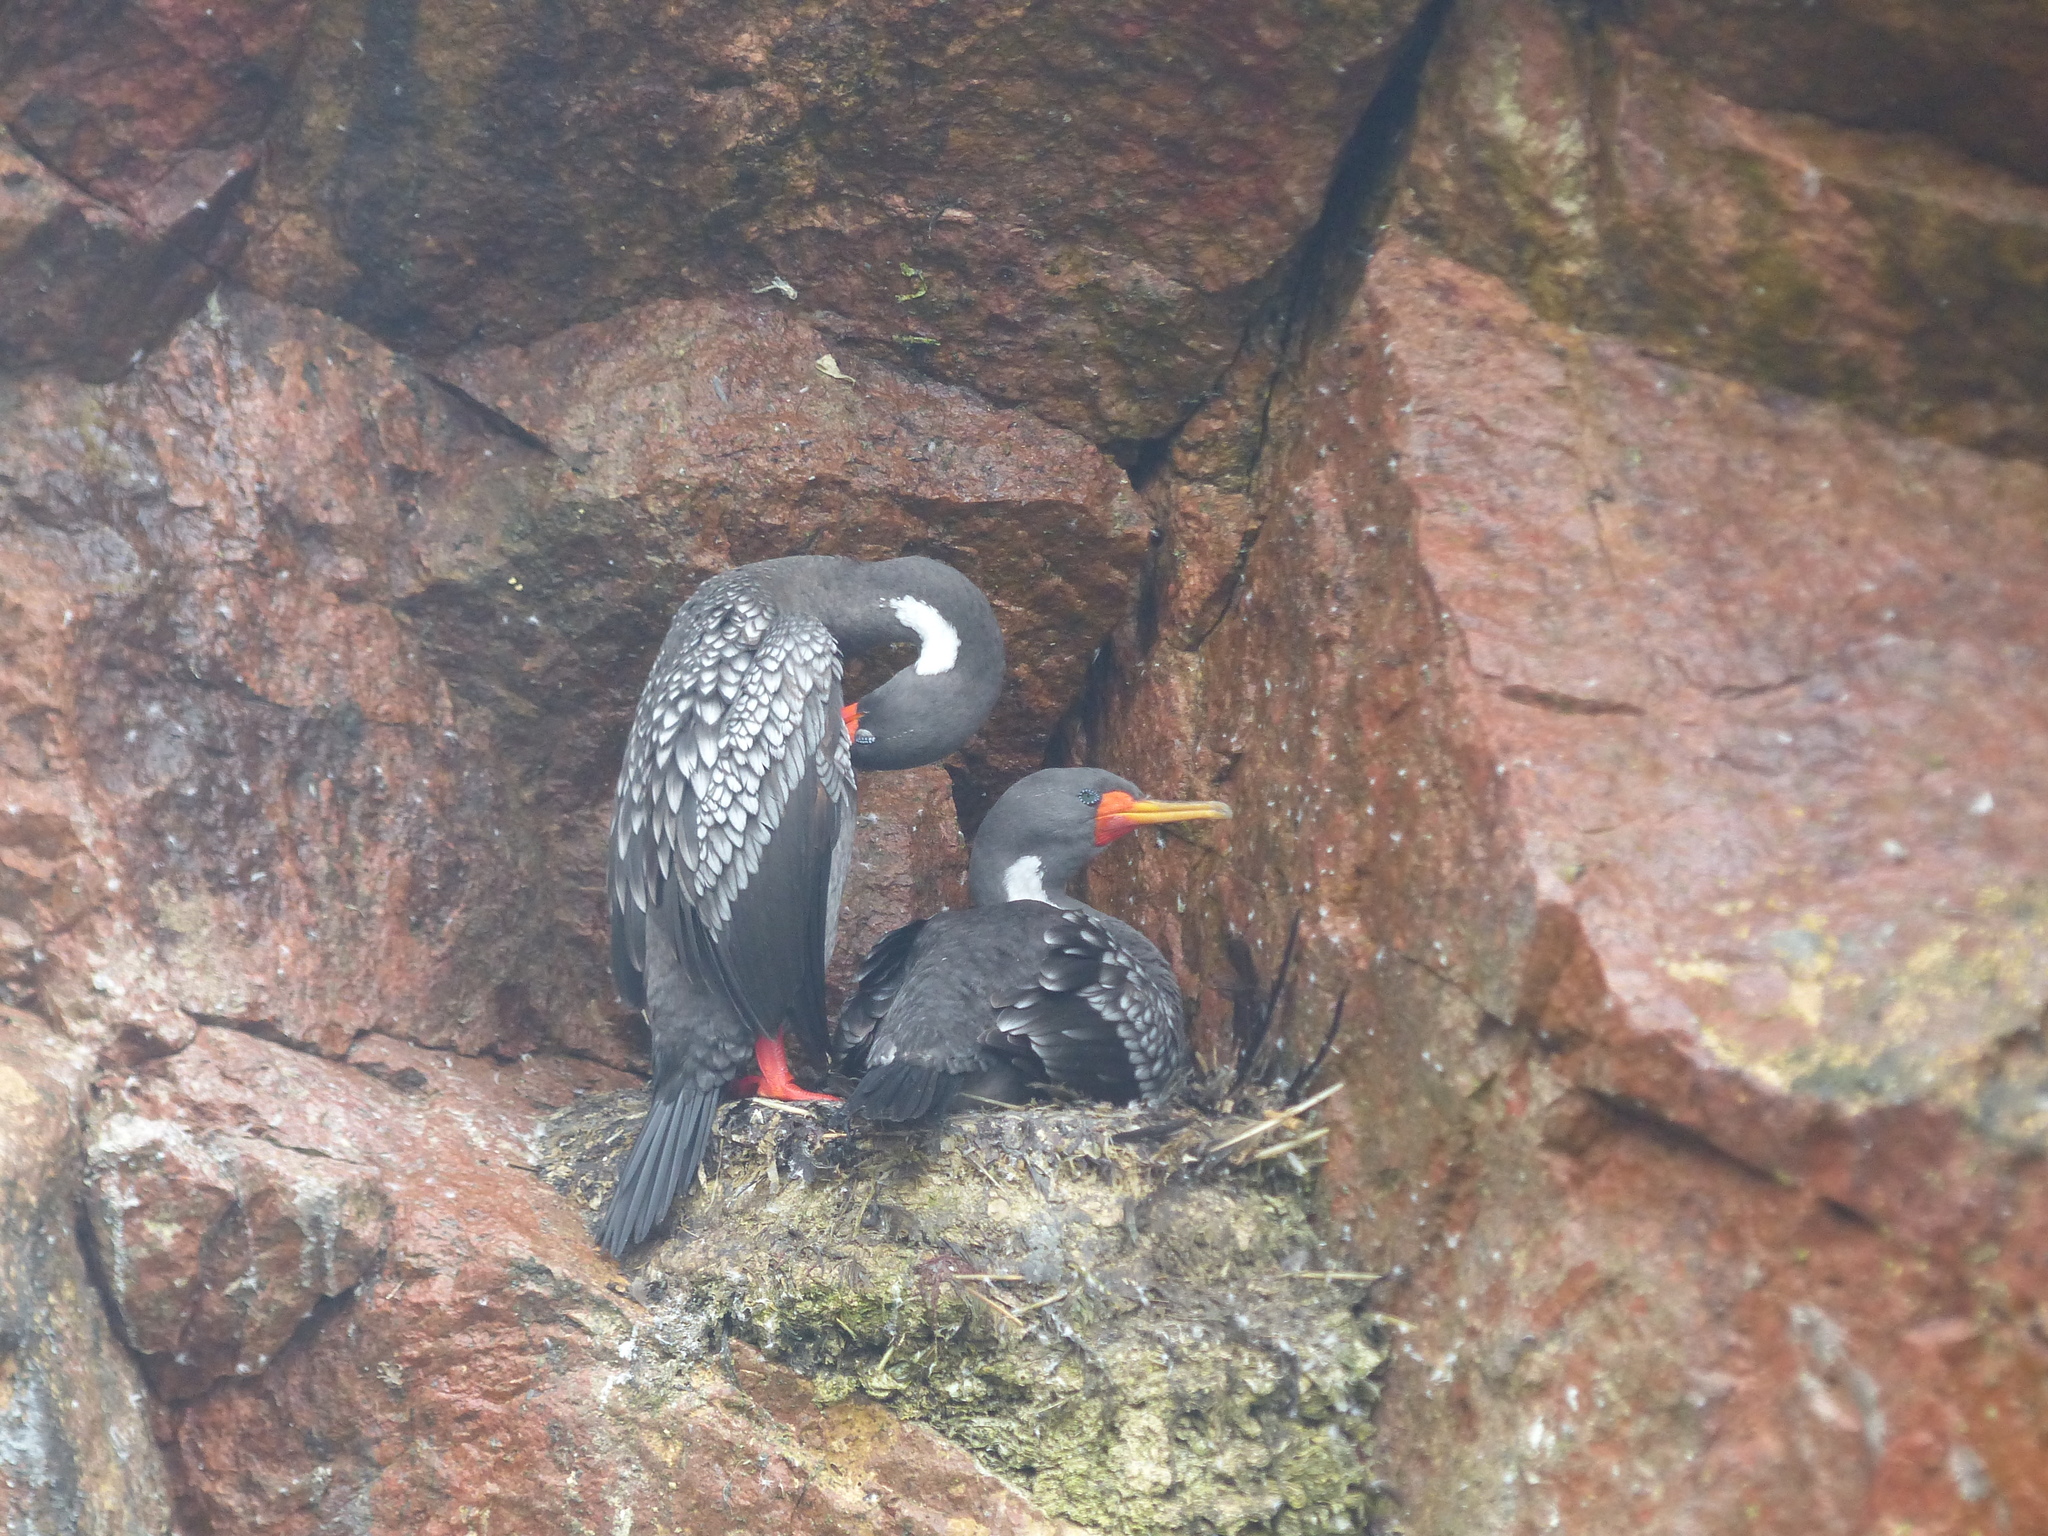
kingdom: Animalia
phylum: Chordata
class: Aves
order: Suliformes
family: Phalacrocoracidae
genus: Phalacrocorax
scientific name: Phalacrocorax gaimardi
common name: Red-legged cormorant
